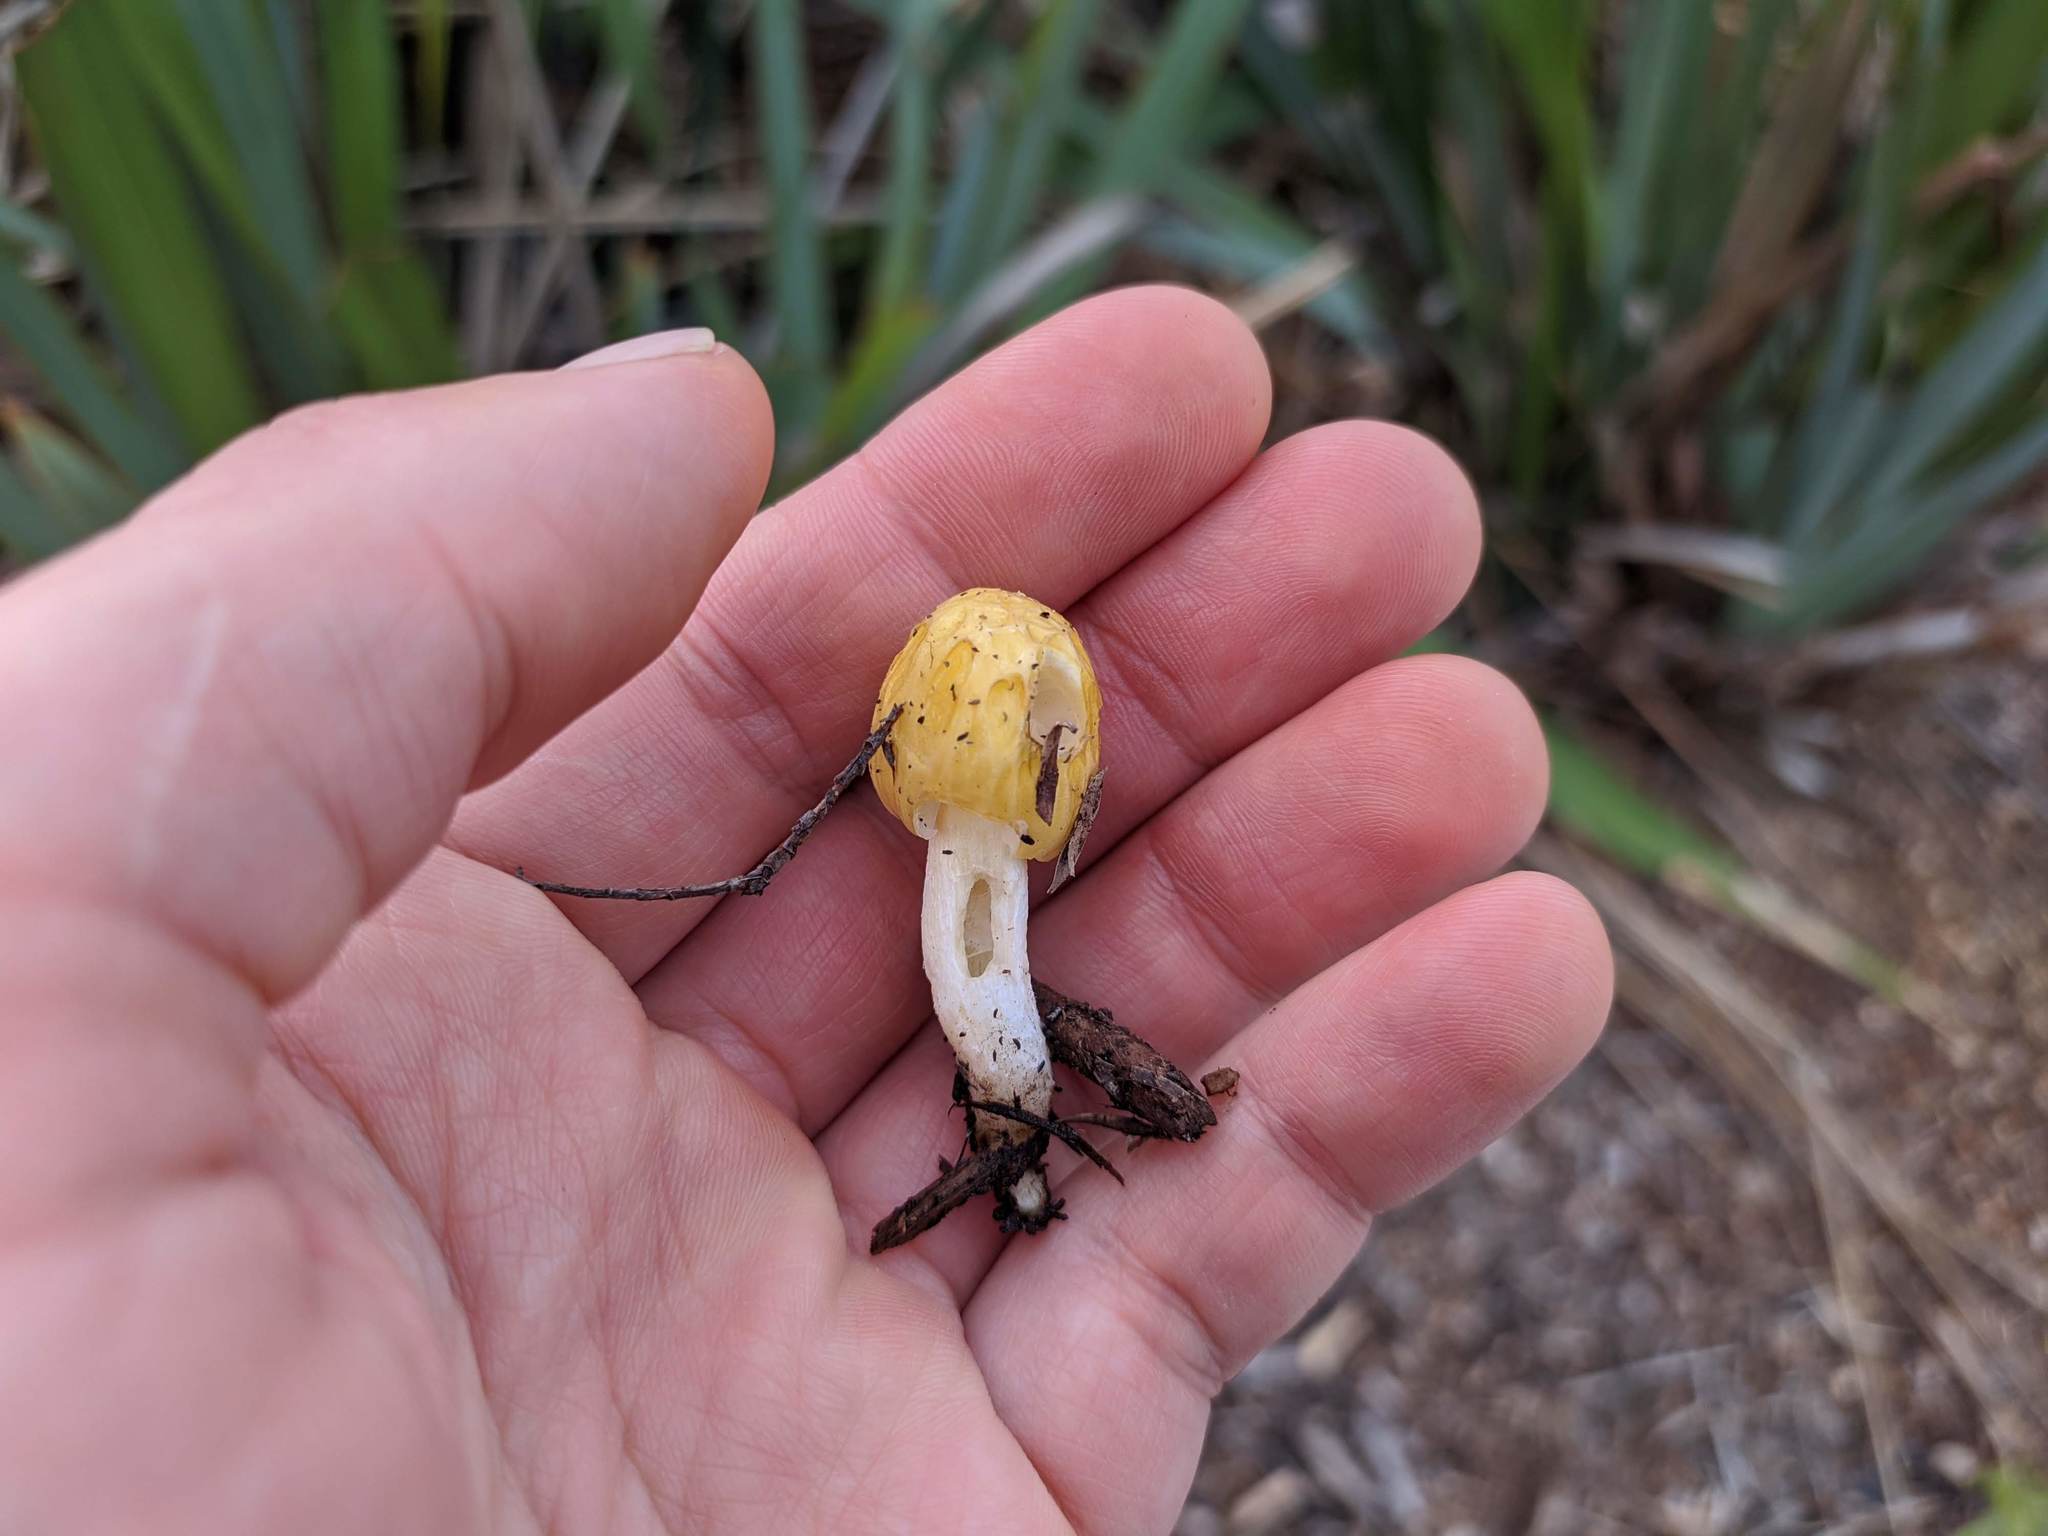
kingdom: Fungi
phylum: Basidiomycota
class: Agaricomycetes
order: Agaricales
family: Bolbitiaceae
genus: Bolbitius
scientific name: Bolbitius titubans
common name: Yellow fieldcap
